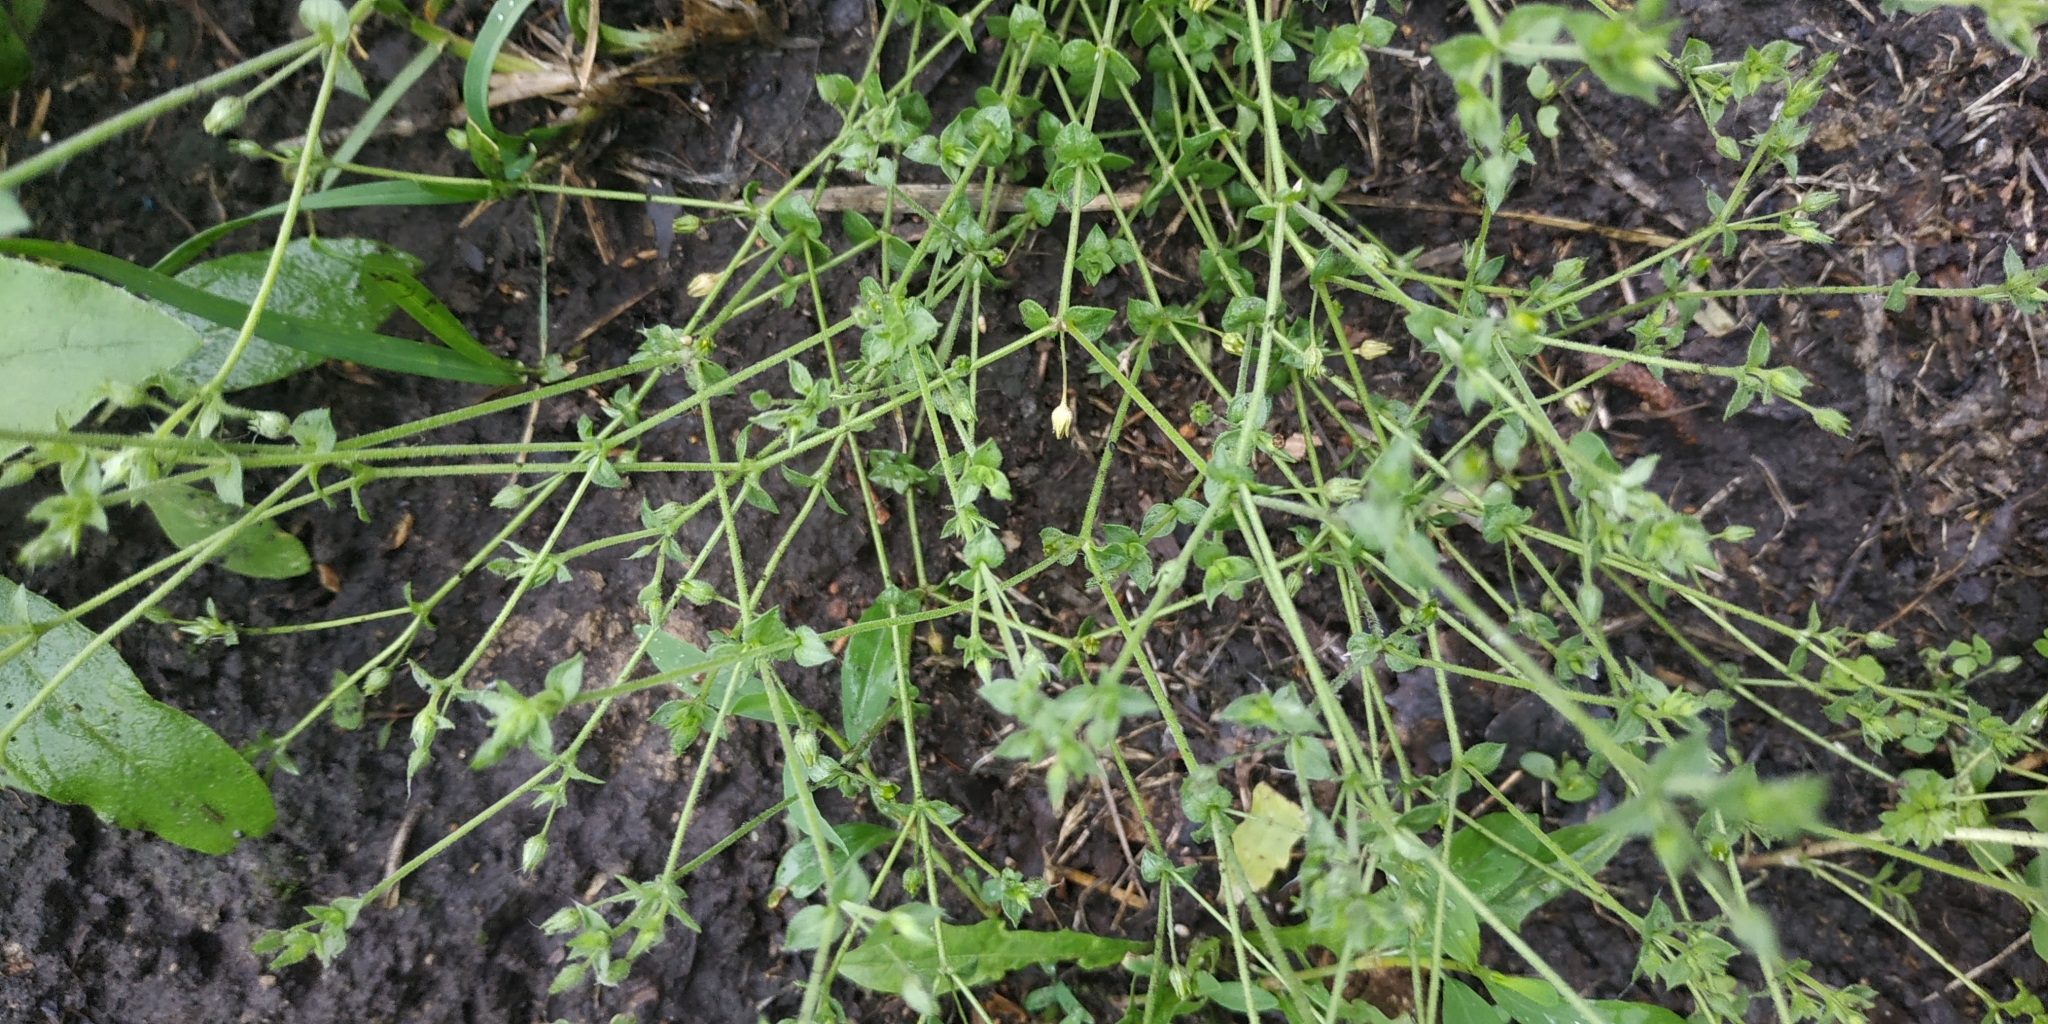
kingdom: Plantae
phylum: Tracheophyta
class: Magnoliopsida
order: Caryophyllales
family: Caryophyllaceae
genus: Arenaria
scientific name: Arenaria serpyllifolia
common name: Thyme-leaved sandwort
